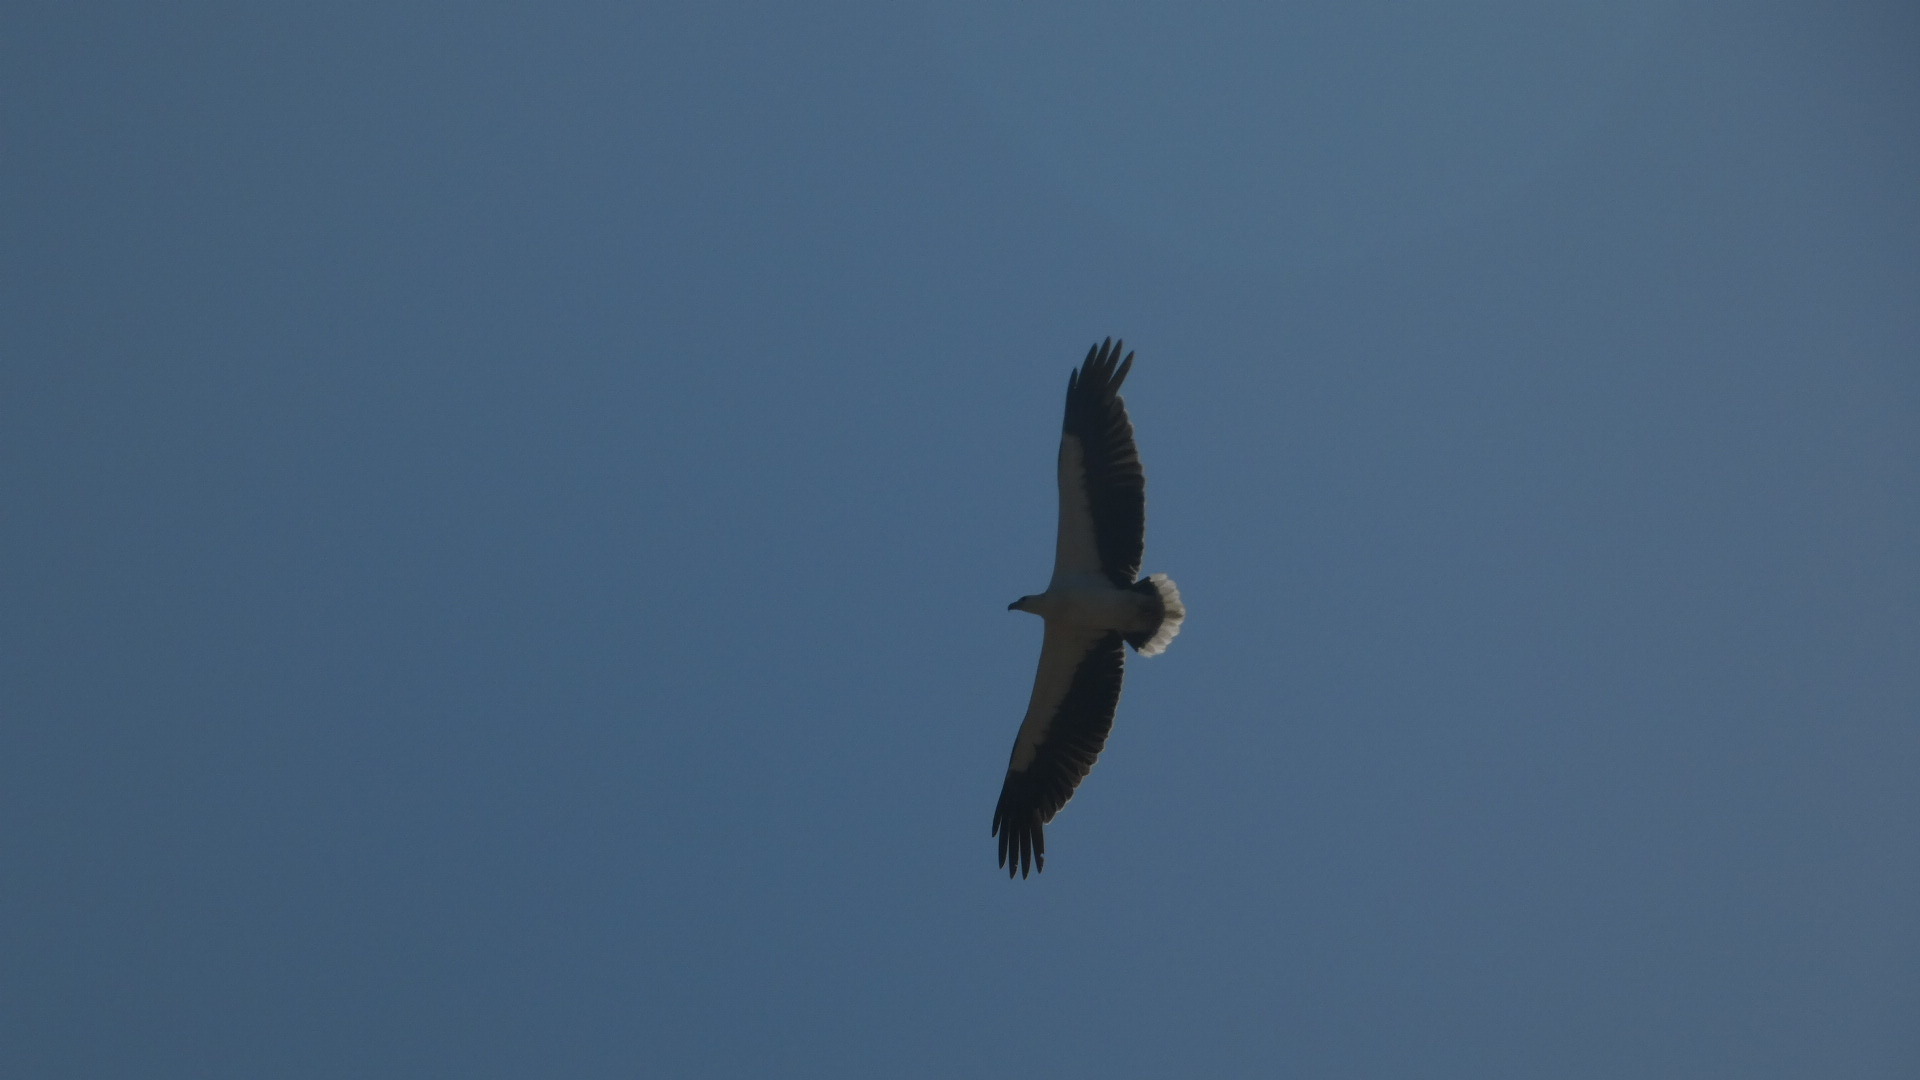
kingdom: Animalia
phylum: Chordata
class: Aves
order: Accipitriformes
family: Accipitridae
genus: Haliaeetus
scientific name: Haliaeetus leucogaster
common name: White-bellied sea eagle
